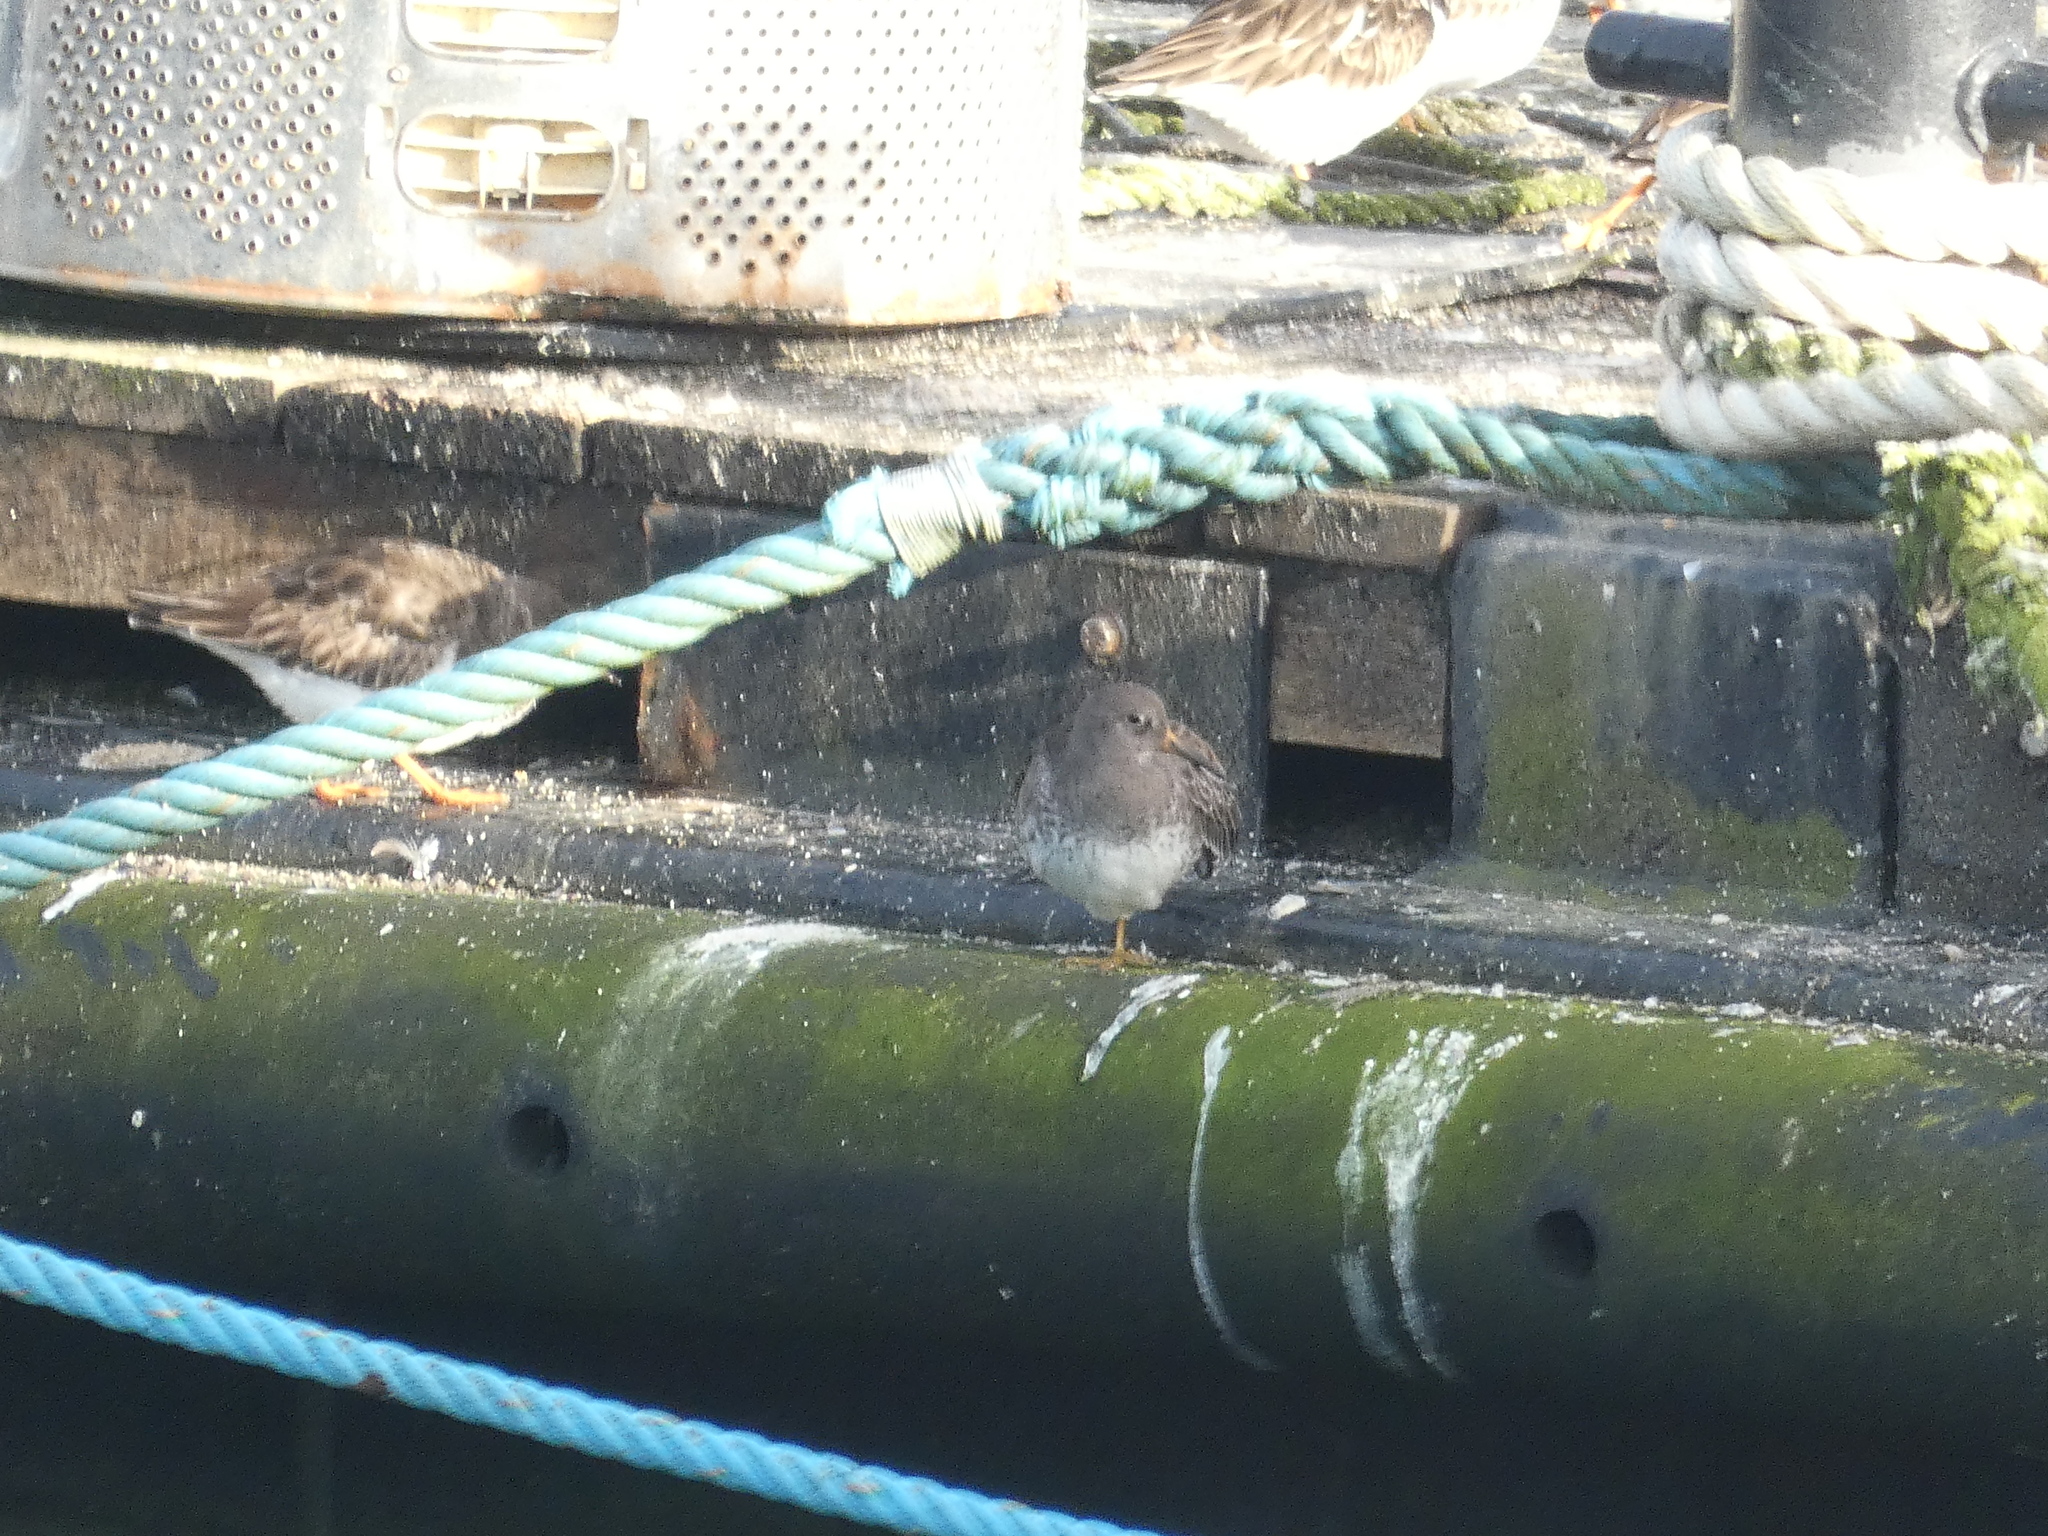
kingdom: Animalia
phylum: Chordata
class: Aves
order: Charadriiformes
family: Scolopacidae
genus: Calidris
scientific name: Calidris maritima
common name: Purple sandpiper
